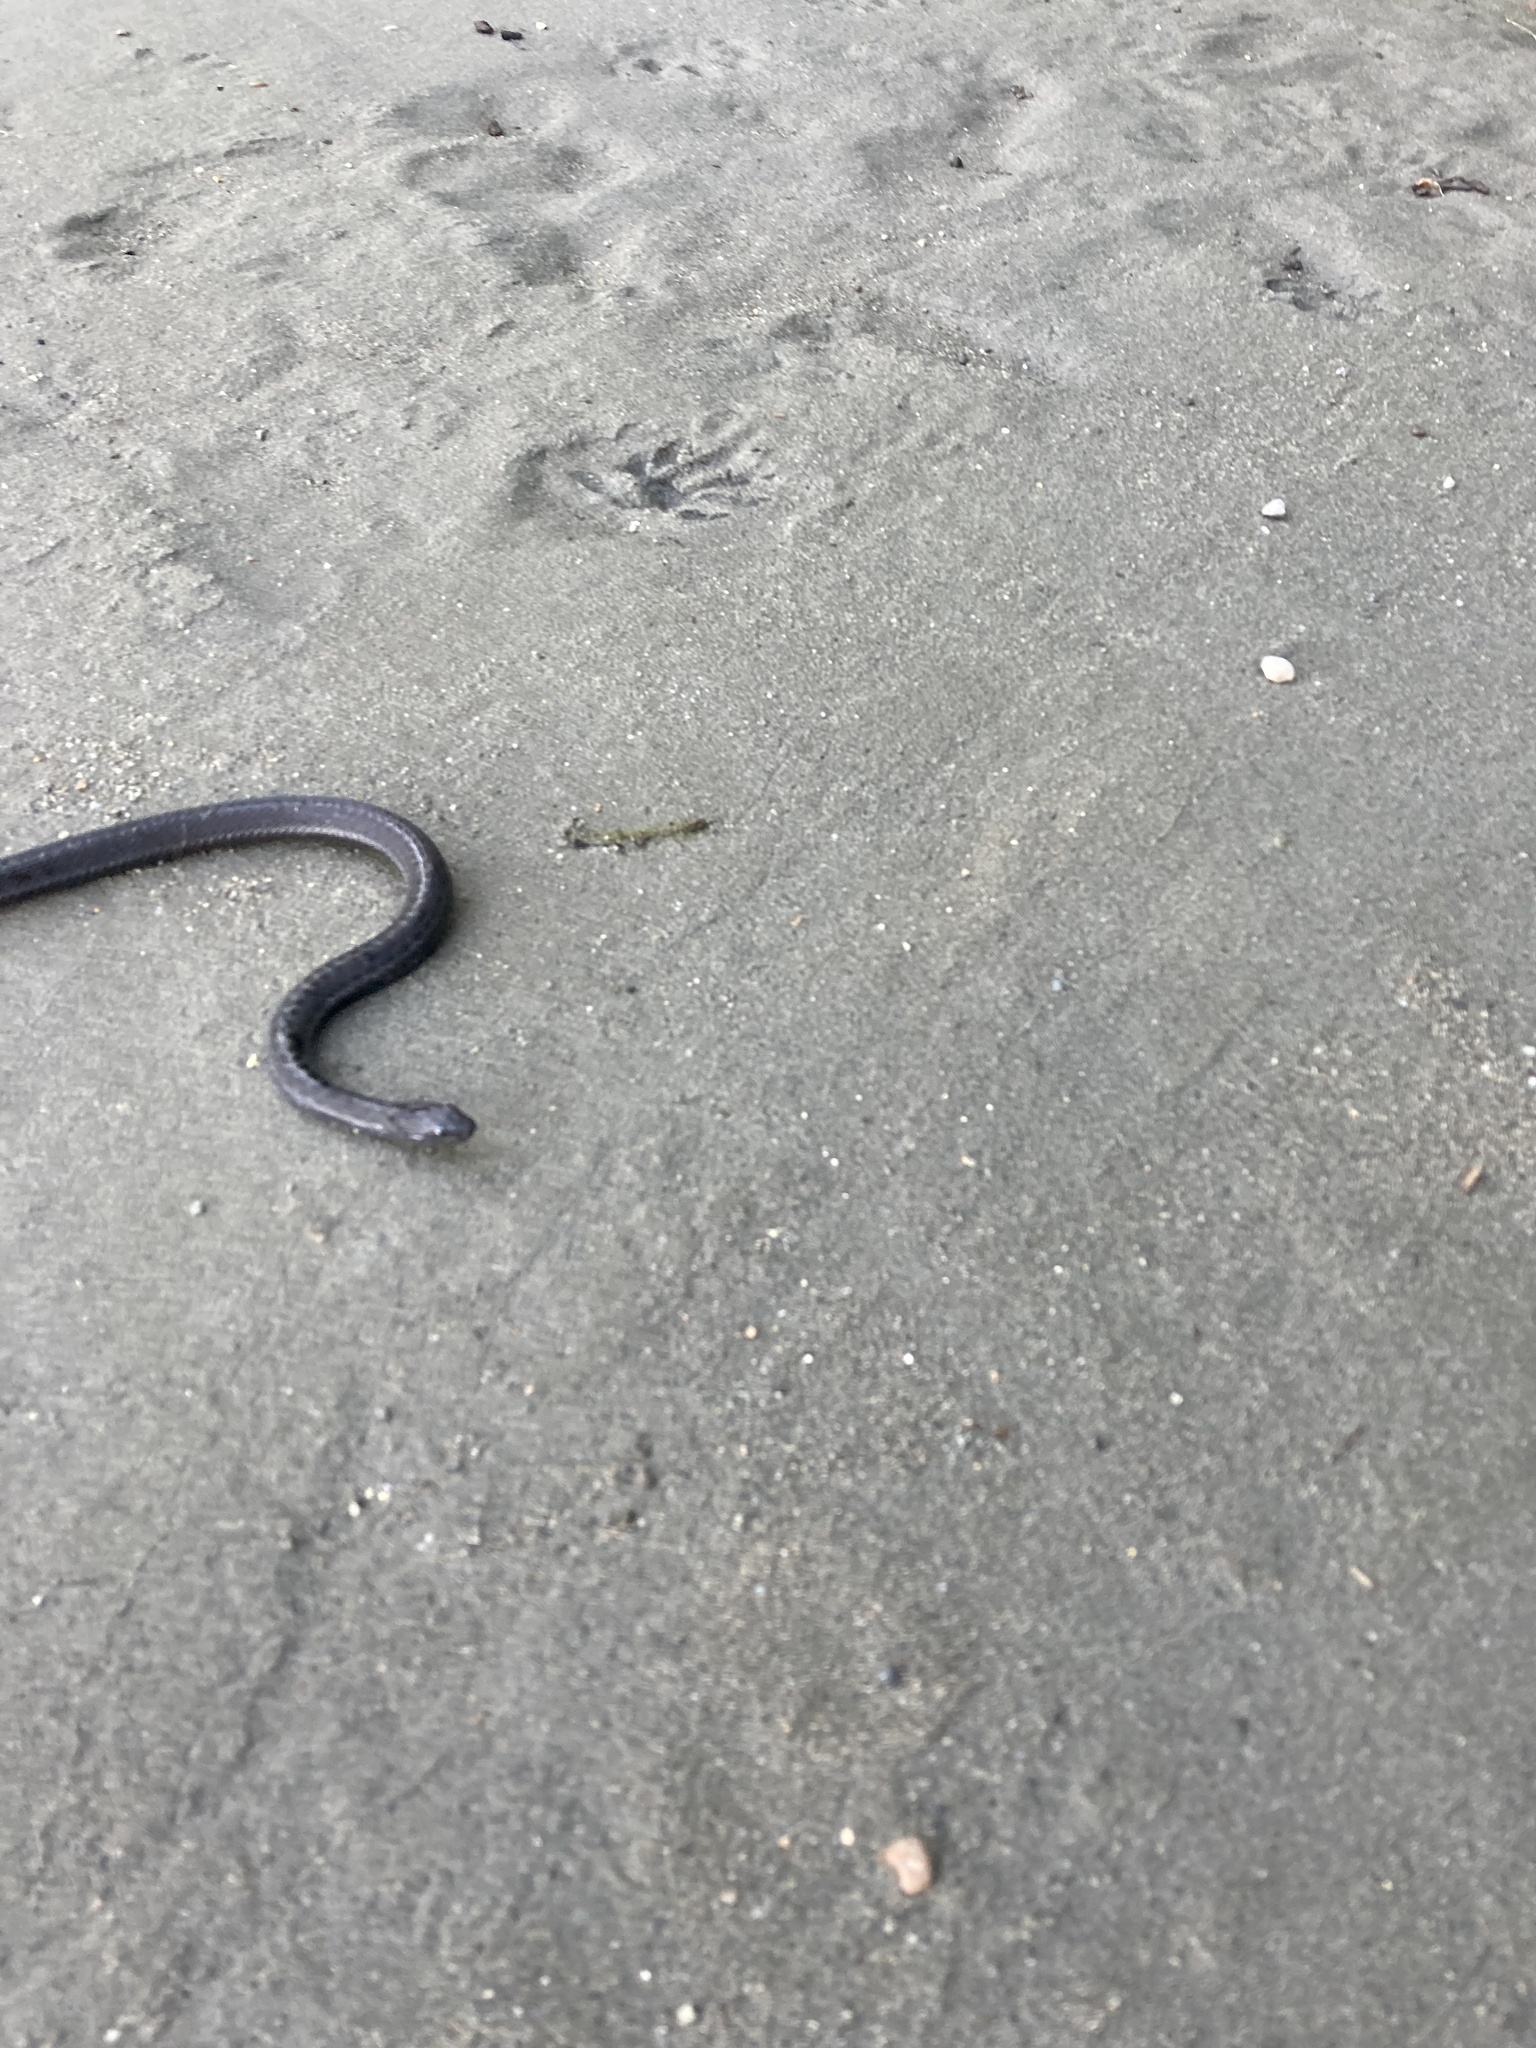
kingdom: Animalia
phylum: Chordata
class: Squamata
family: Colubridae
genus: Thamnophis
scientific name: Thamnophis elegans
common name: Western terrestrial garter snake
